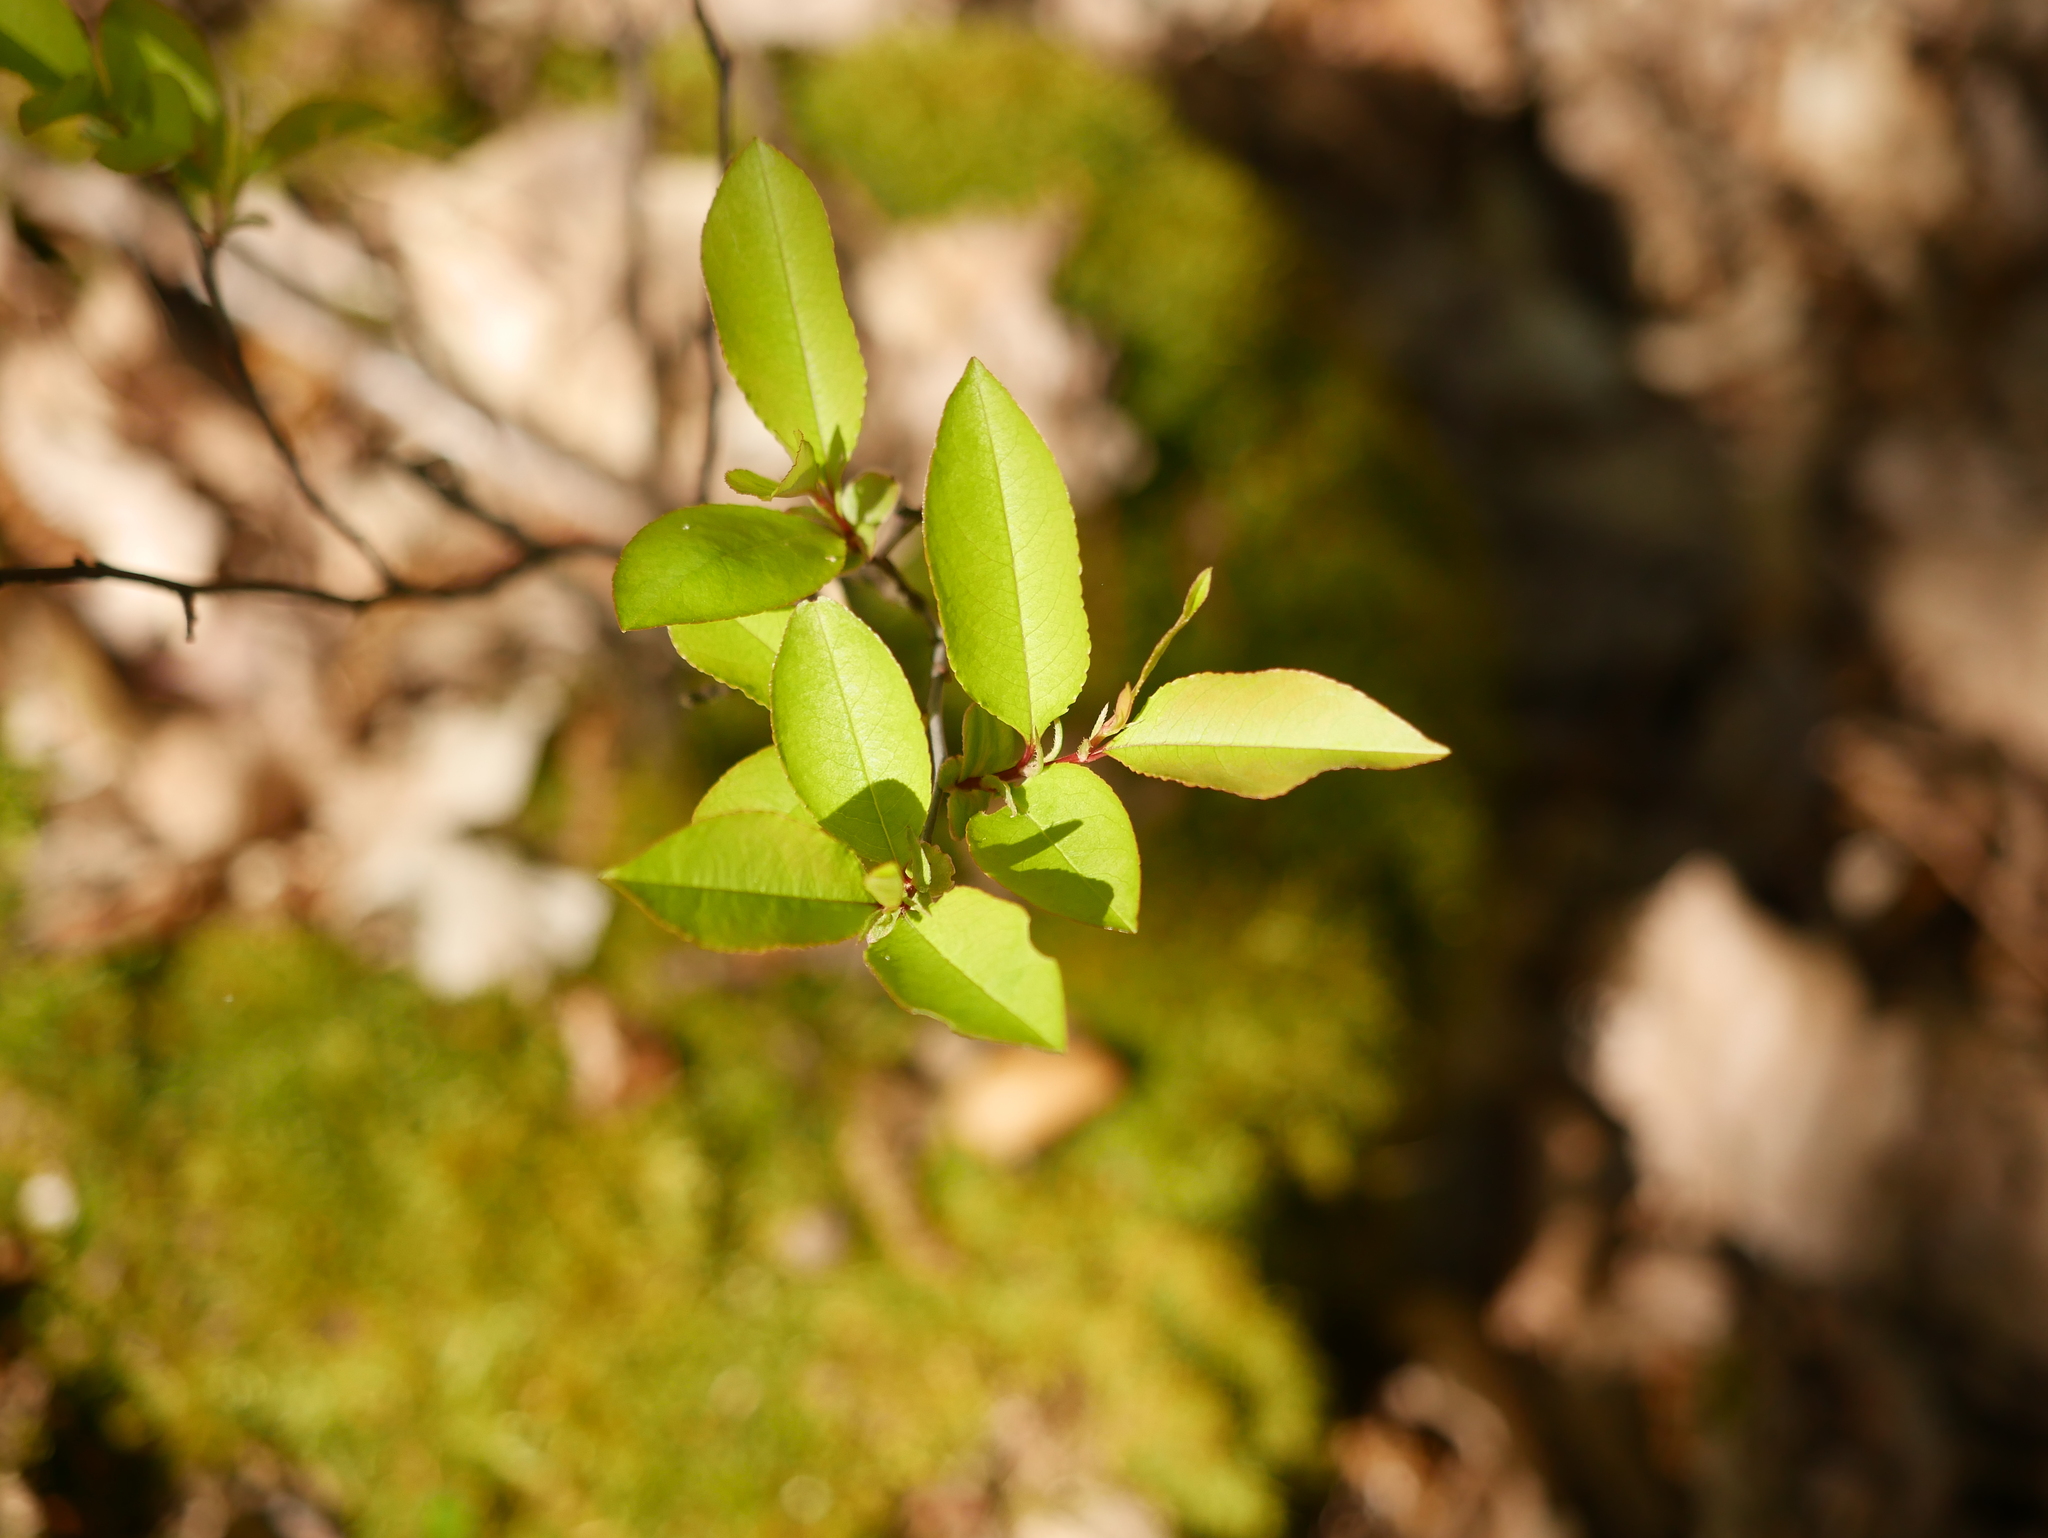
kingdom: Plantae
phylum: Tracheophyta
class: Magnoliopsida
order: Rosales
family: Rosaceae
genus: Prunus
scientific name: Prunus serotina
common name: Black cherry
